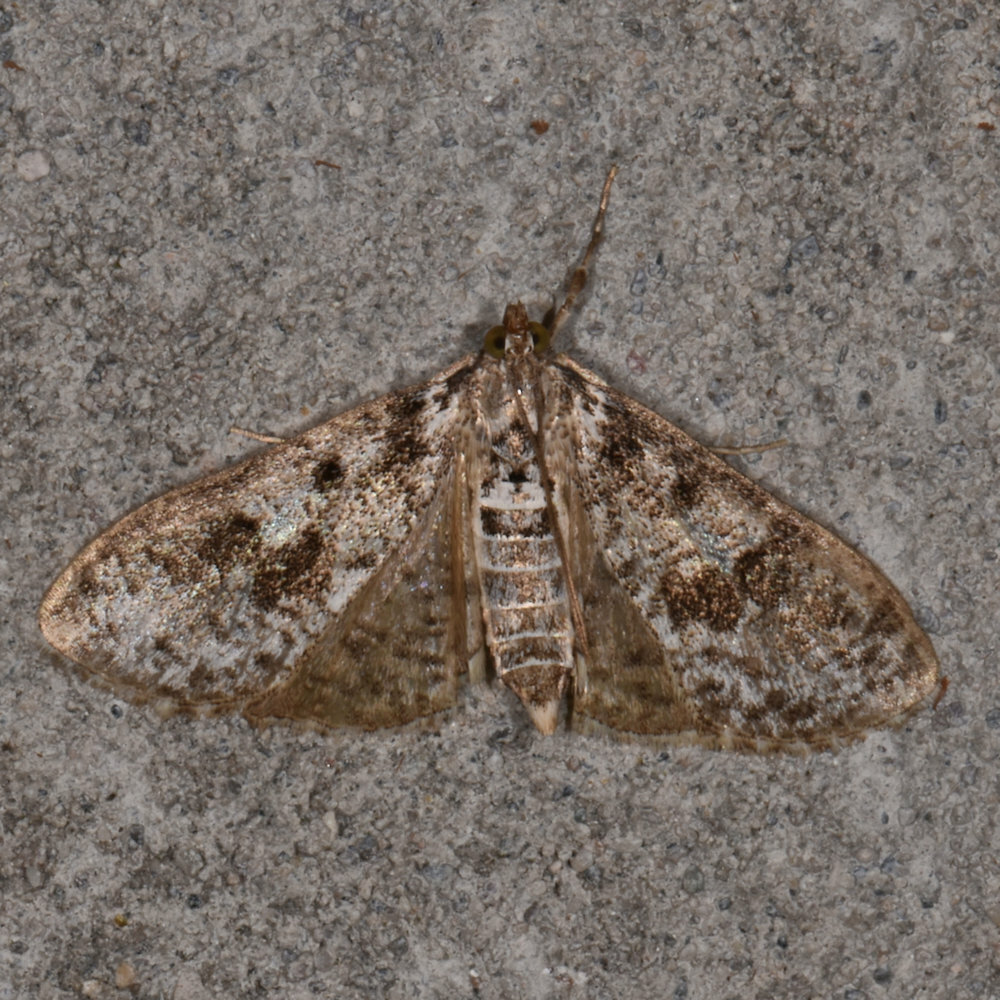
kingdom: Animalia
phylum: Arthropoda
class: Insecta
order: Lepidoptera
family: Crambidae
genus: Palpita
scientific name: Palpita magniferalis
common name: Splendid palpita moth
